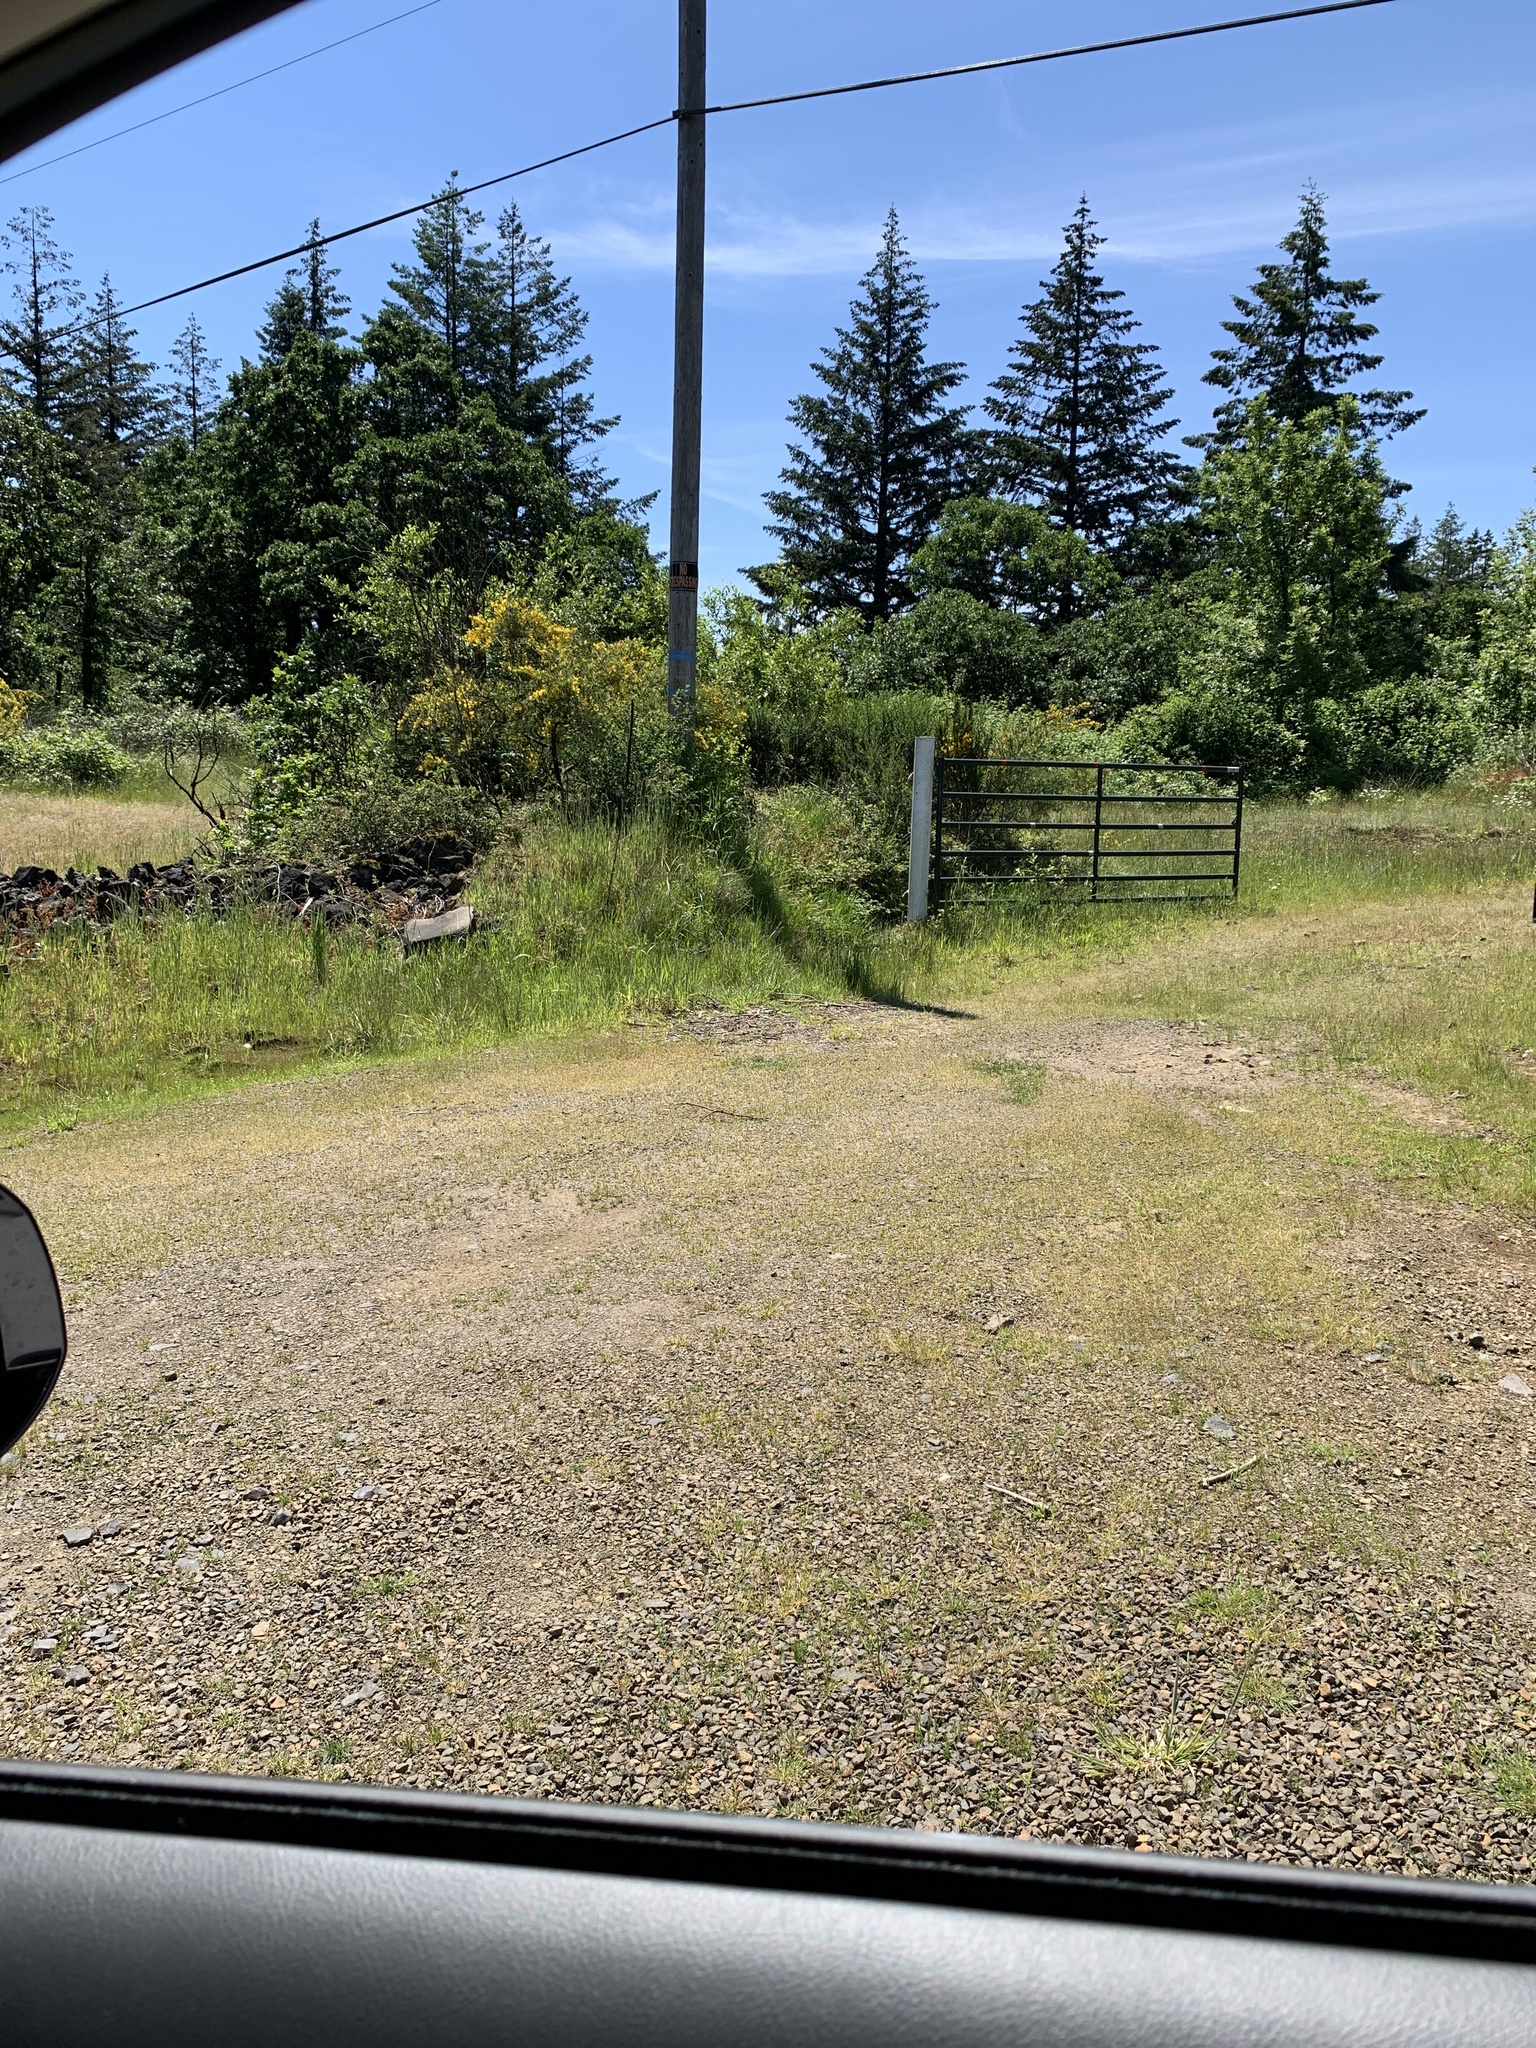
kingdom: Plantae
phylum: Tracheophyta
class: Magnoliopsida
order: Fabales
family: Fabaceae
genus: Cytisus
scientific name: Cytisus scoparius
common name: Scotch broom
